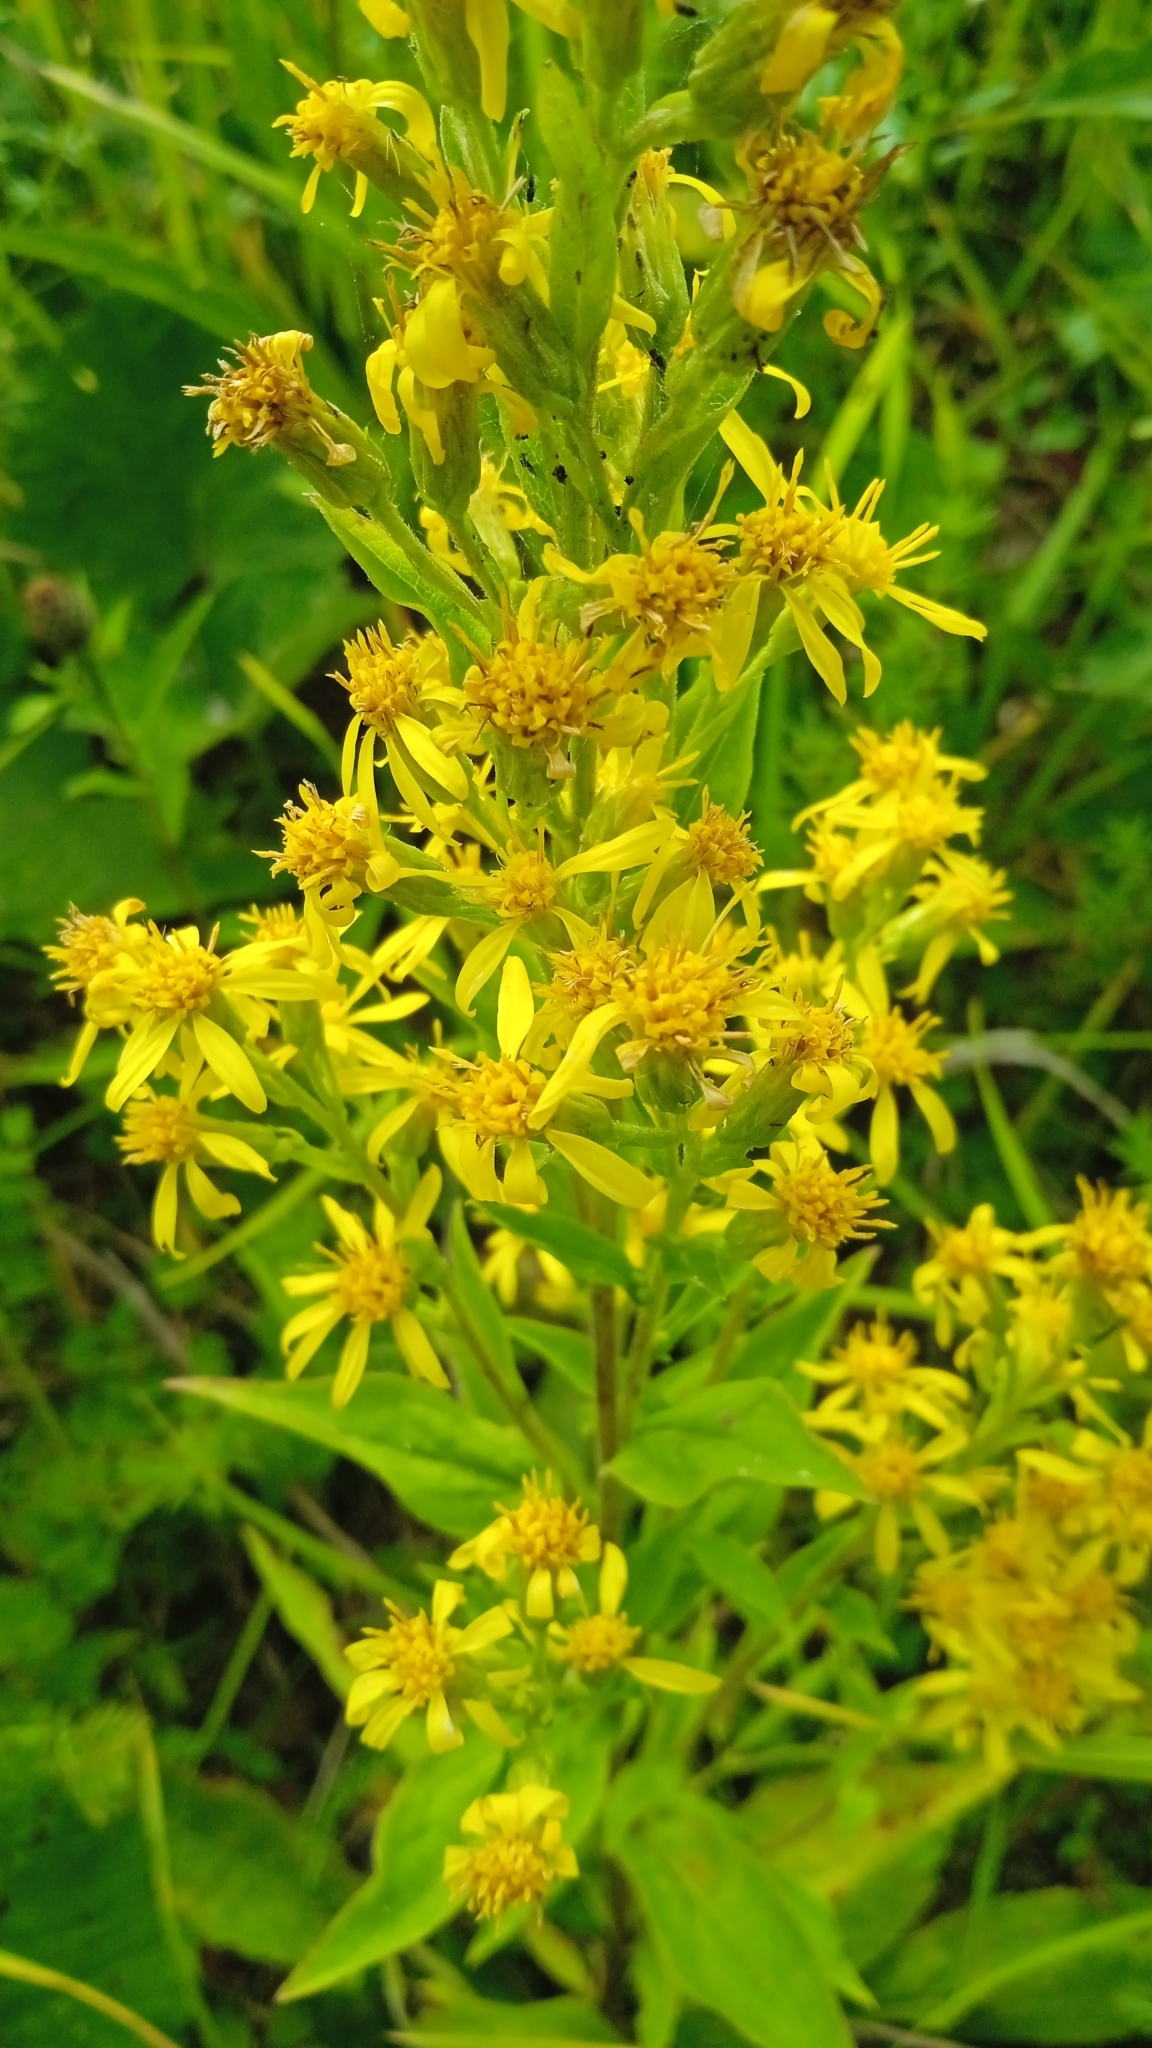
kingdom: Plantae
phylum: Tracheophyta
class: Magnoliopsida
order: Asterales
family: Asteraceae
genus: Solidago
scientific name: Solidago virgaurea
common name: Goldenrod
